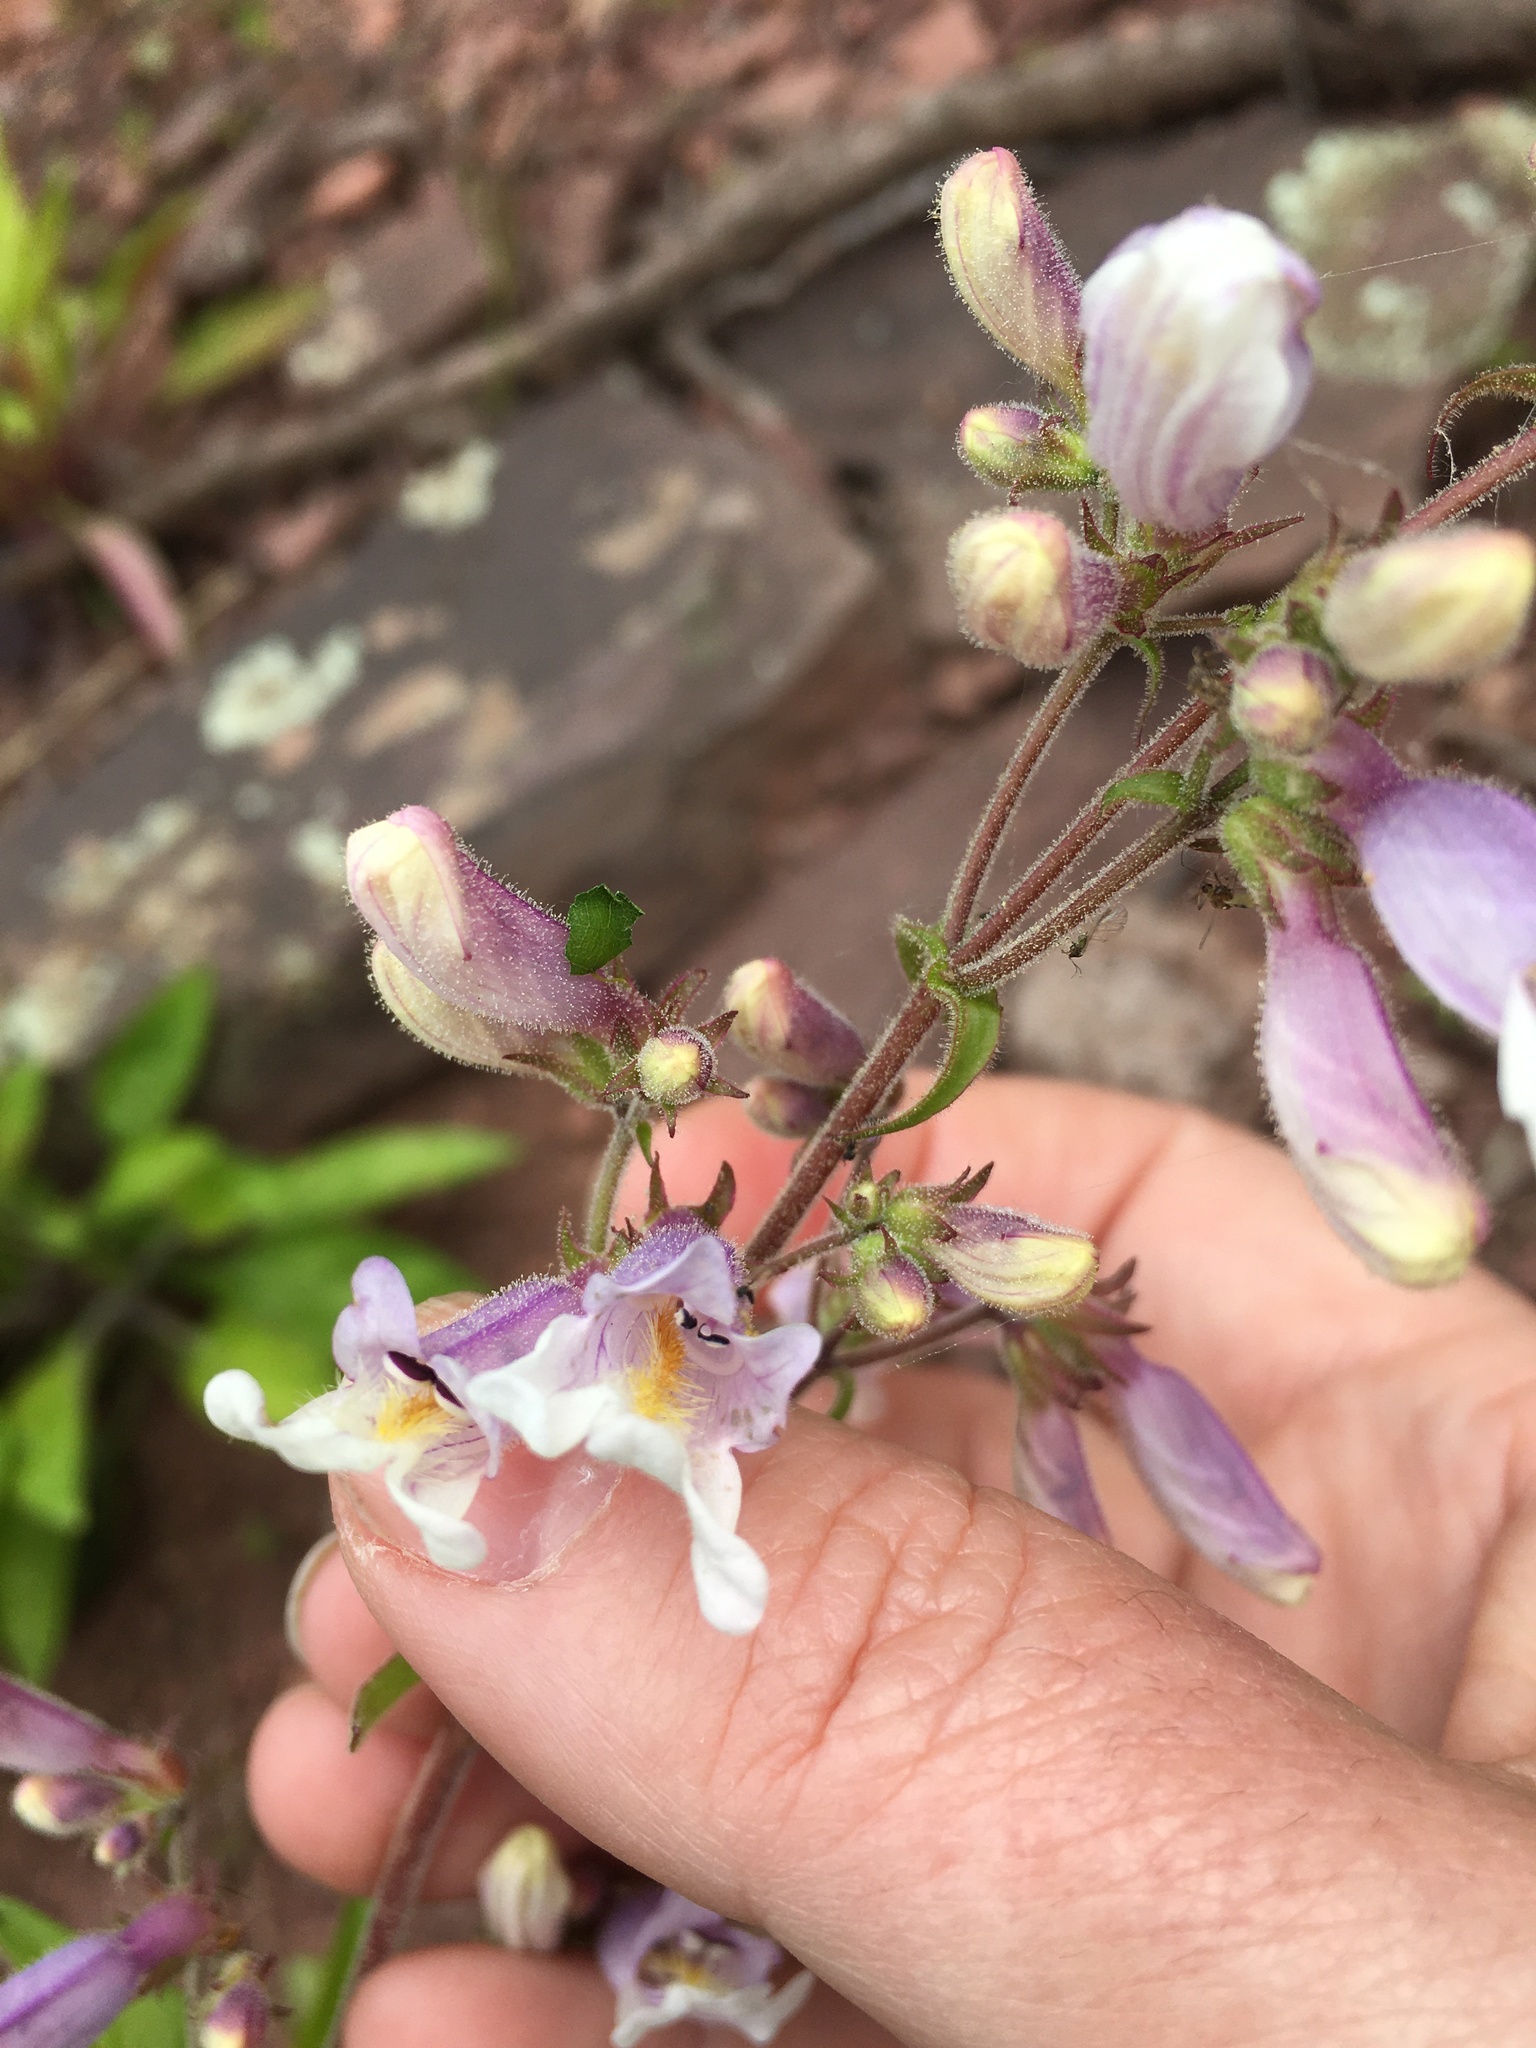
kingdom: Plantae
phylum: Tracheophyta
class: Magnoliopsida
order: Lamiales
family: Plantaginaceae
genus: Penstemon
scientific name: Penstemon canescens
